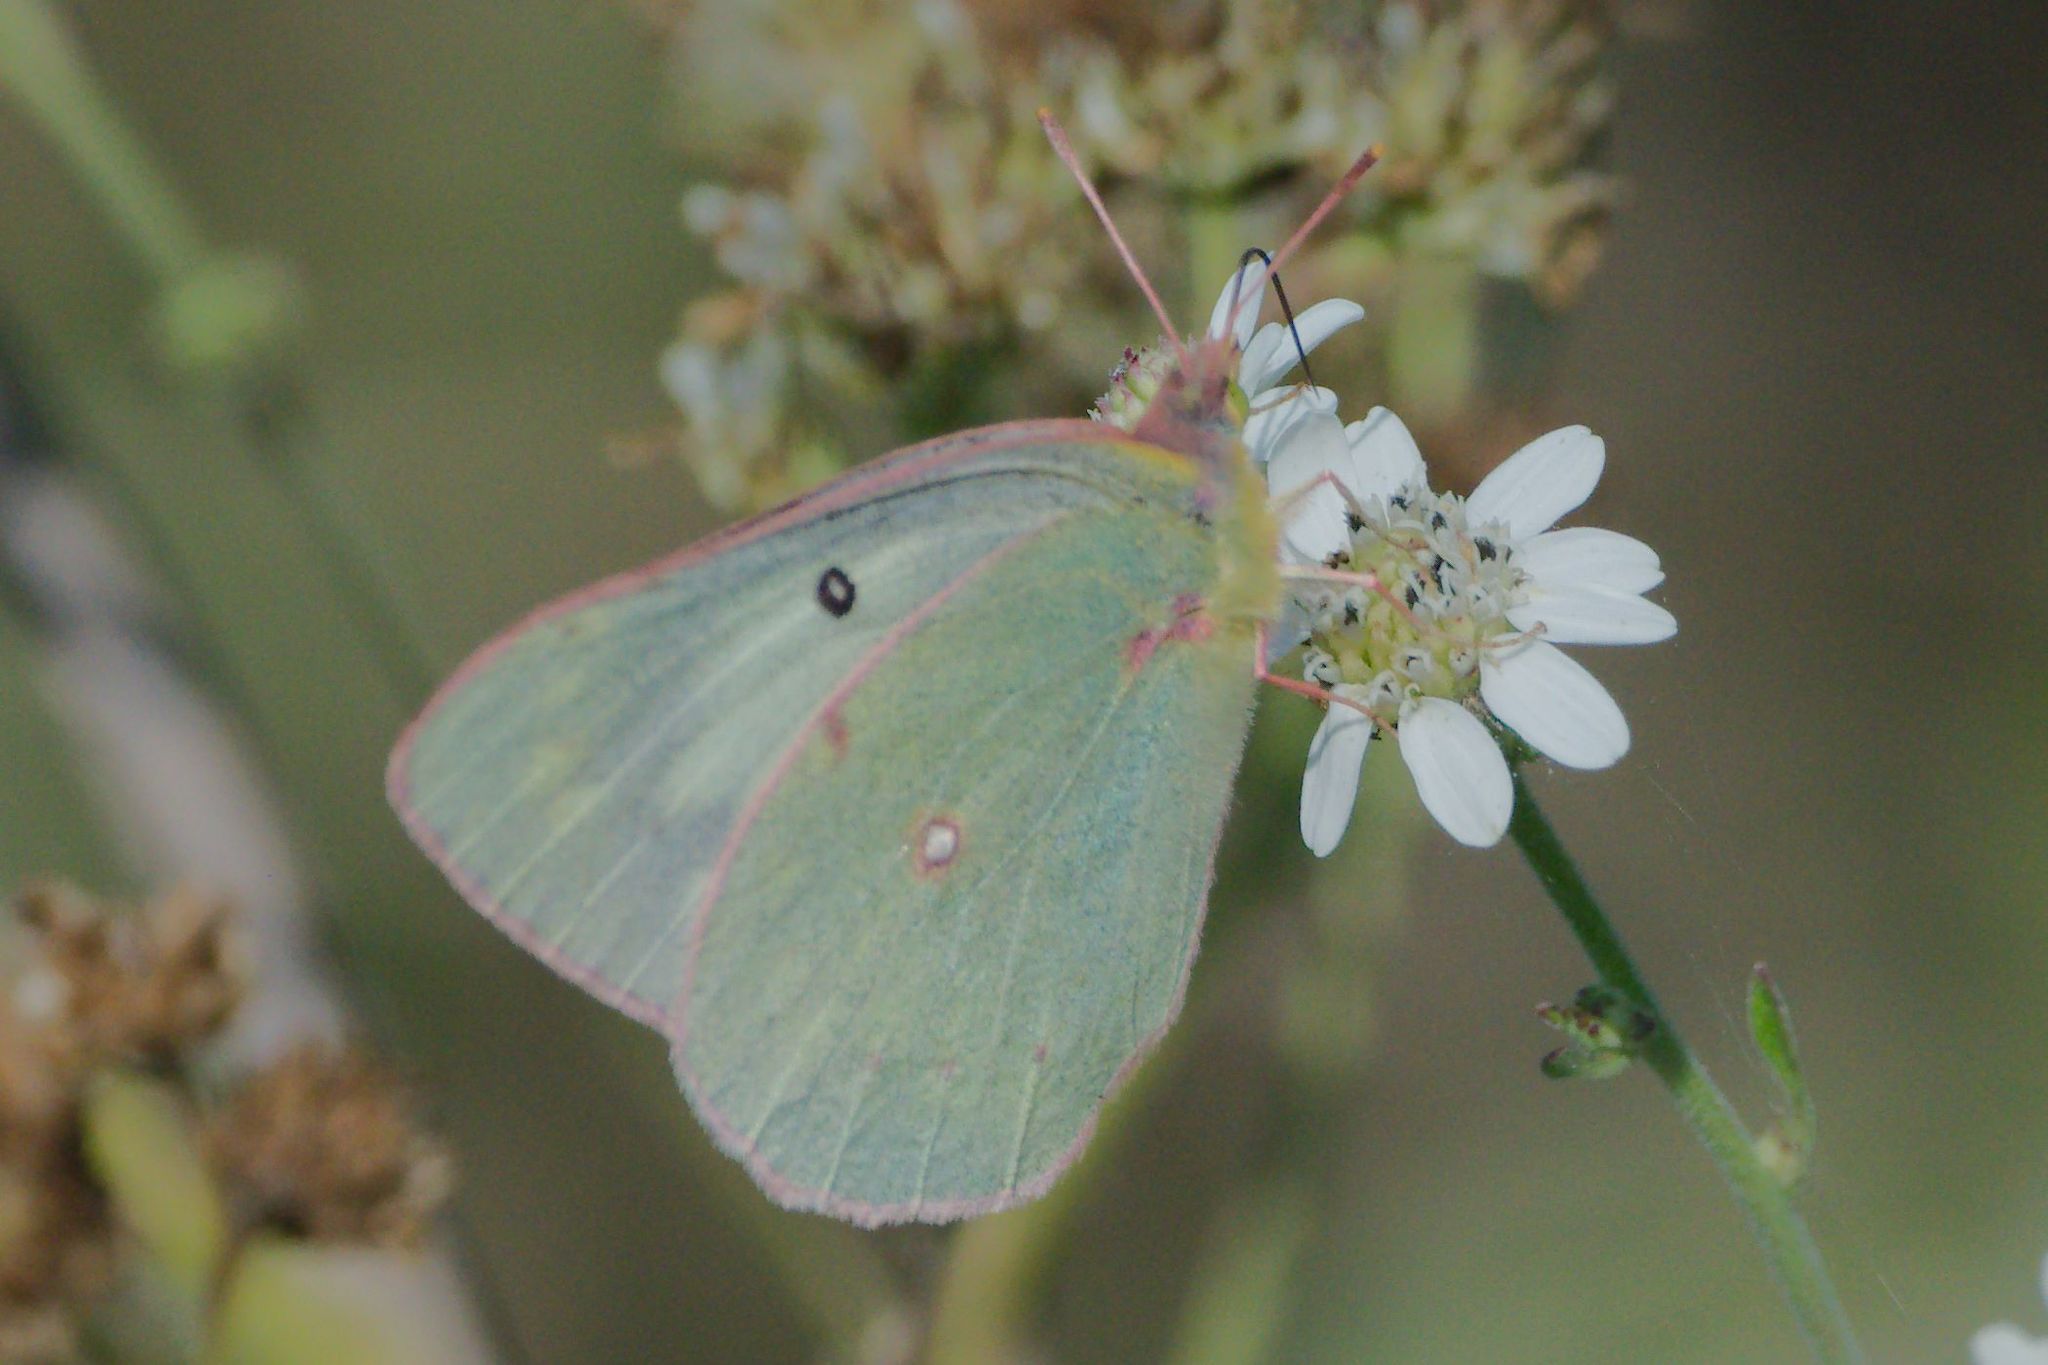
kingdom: Animalia
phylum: Arthropoda
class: Insecta
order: Lepidoptera
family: Pieridae
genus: Colias
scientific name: Colias eurytheme
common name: Alfalfa butterfly
